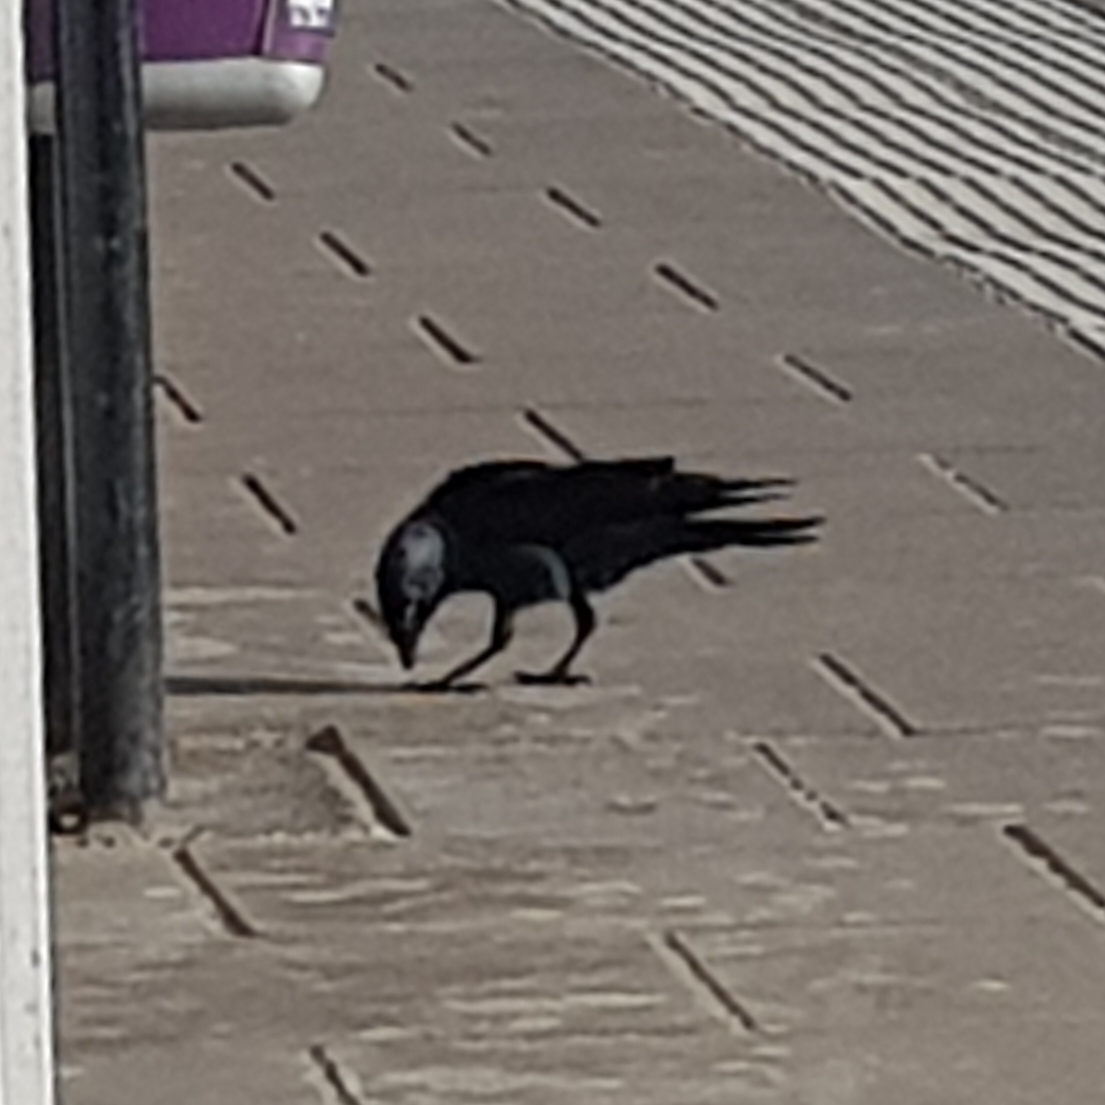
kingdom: Animalia
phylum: Chordata
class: Aves
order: Passeriformes
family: Corvidae
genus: Coloeus
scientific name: Coloeus monedula
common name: Western jackdaw
